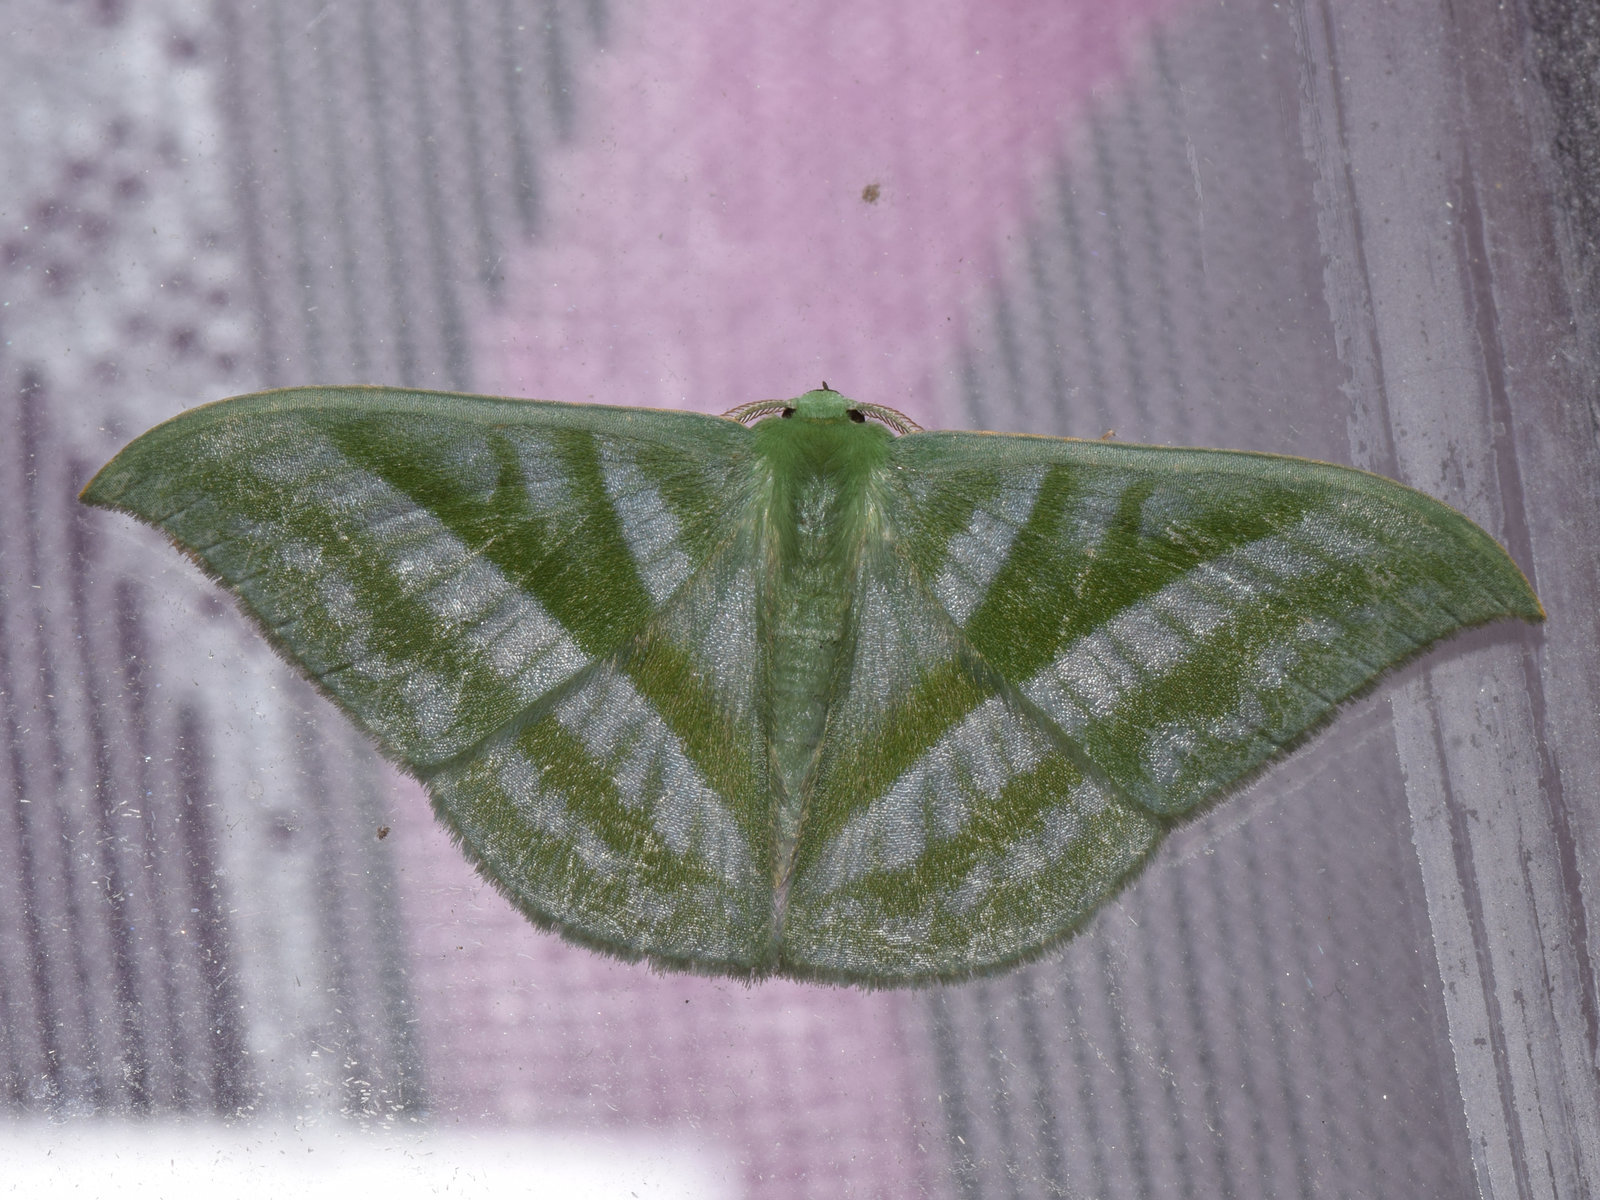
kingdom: Animalia
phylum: Arthropoda
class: Insecta
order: Lepidoptera
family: Geometridae
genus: Mixochlora
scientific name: Mixochlora vittata
